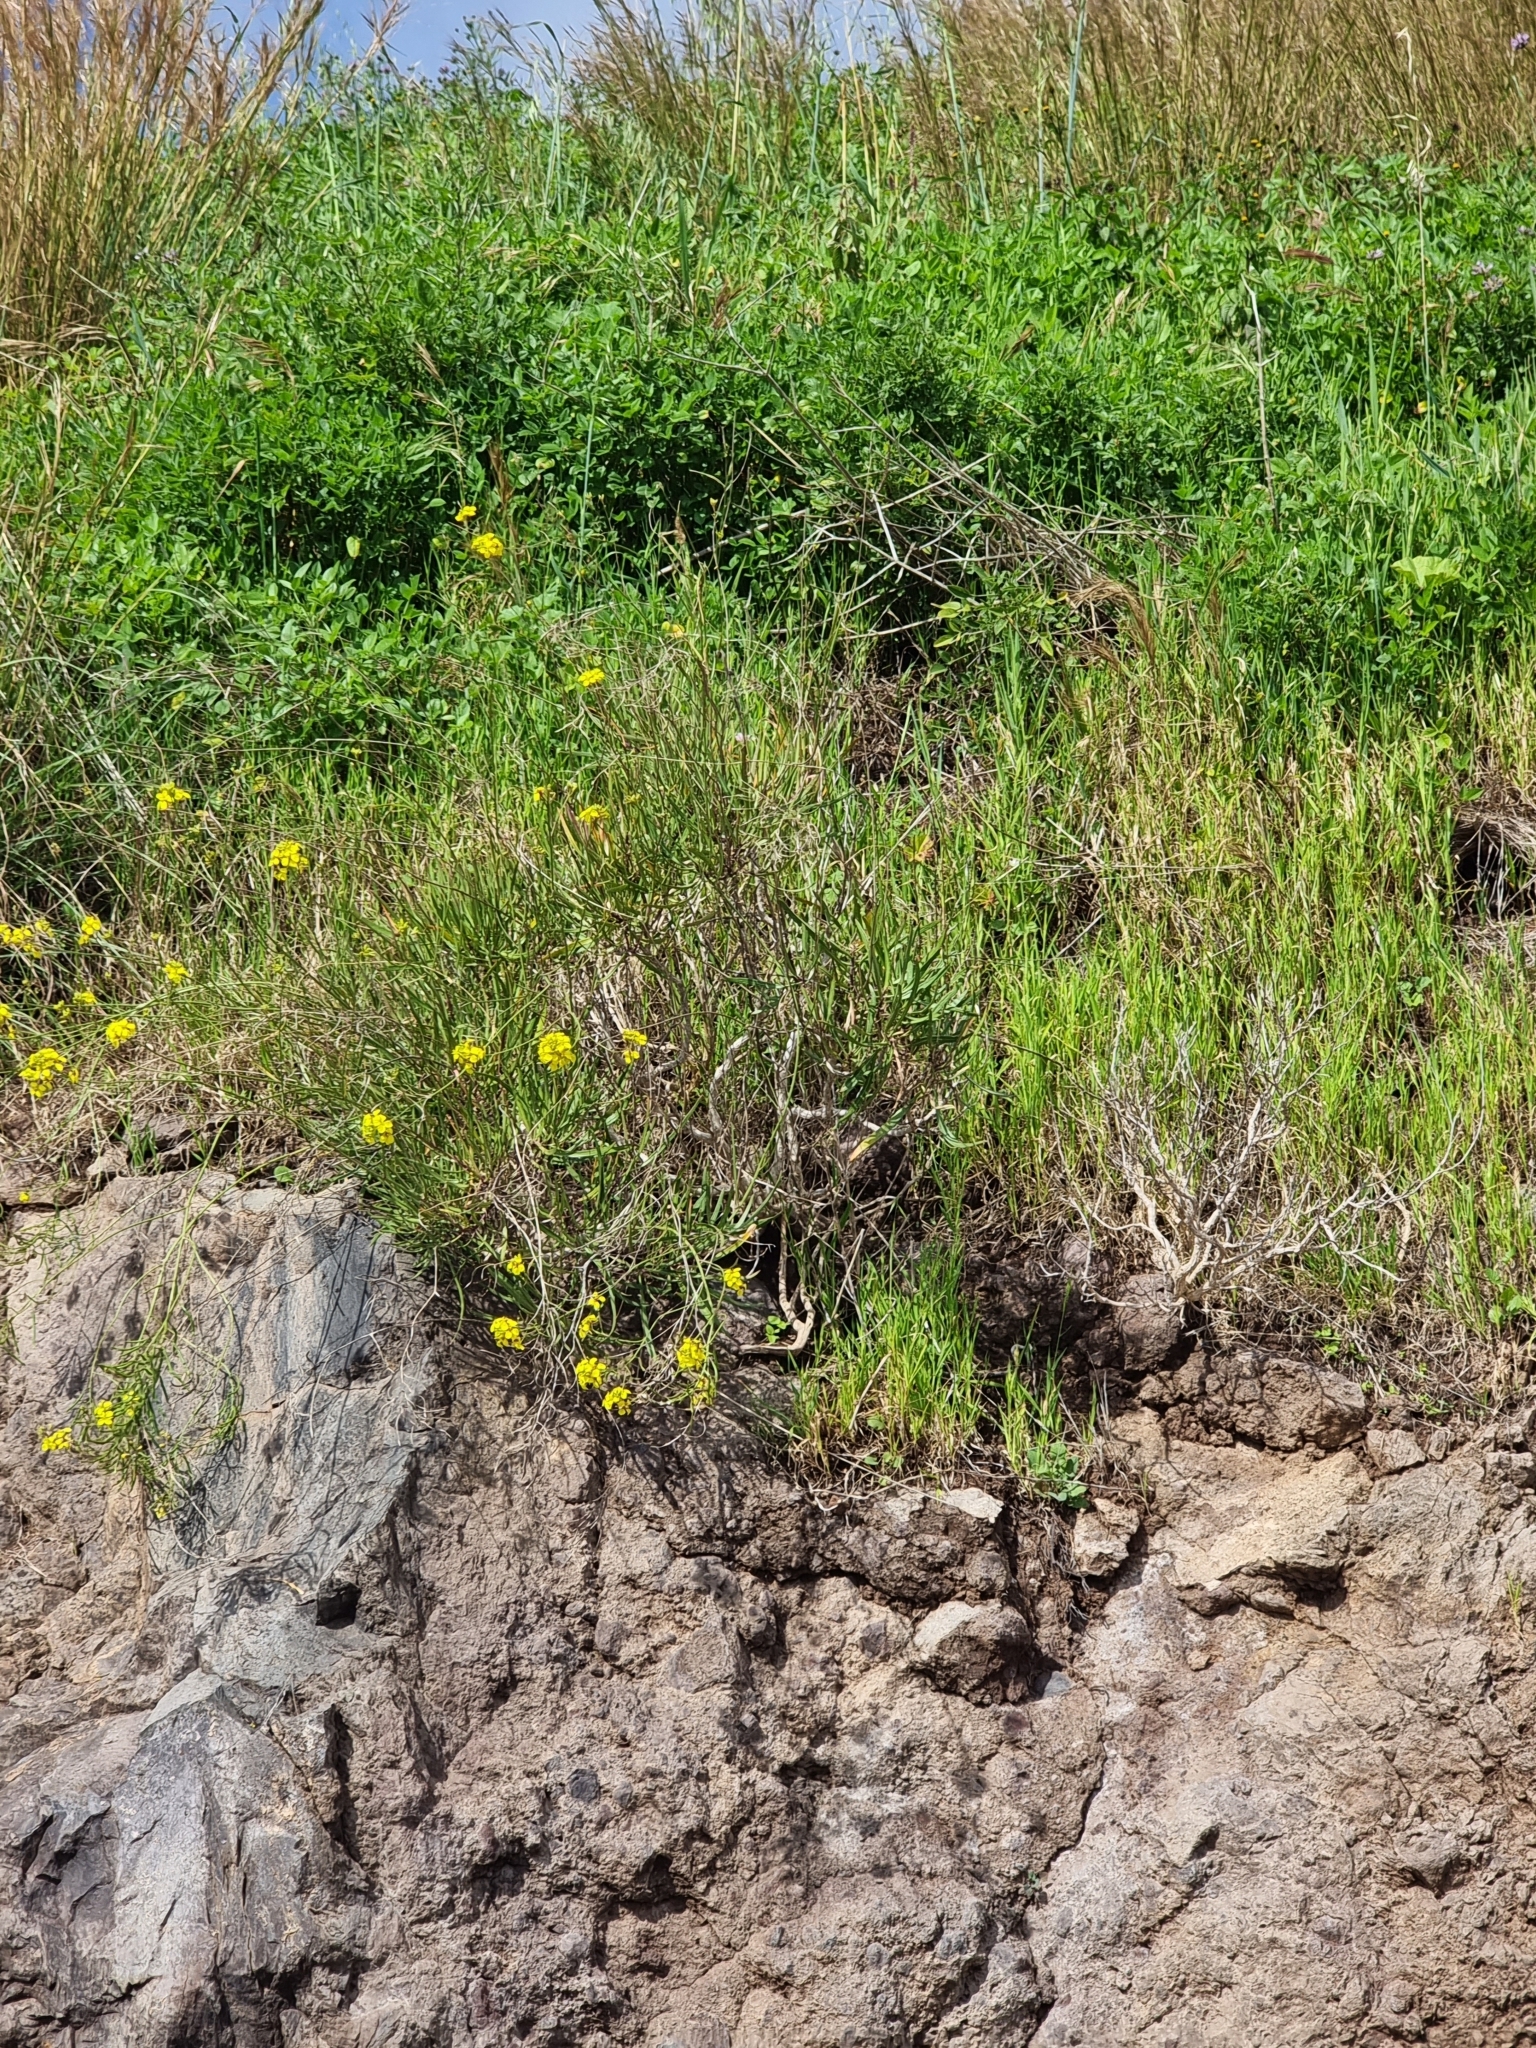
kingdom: Plantae
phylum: Tracheophyta
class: Magnoliopsida
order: Brassicales
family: Brassicaceae
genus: Sinapidendron
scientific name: Sinapidendron angustifolium
